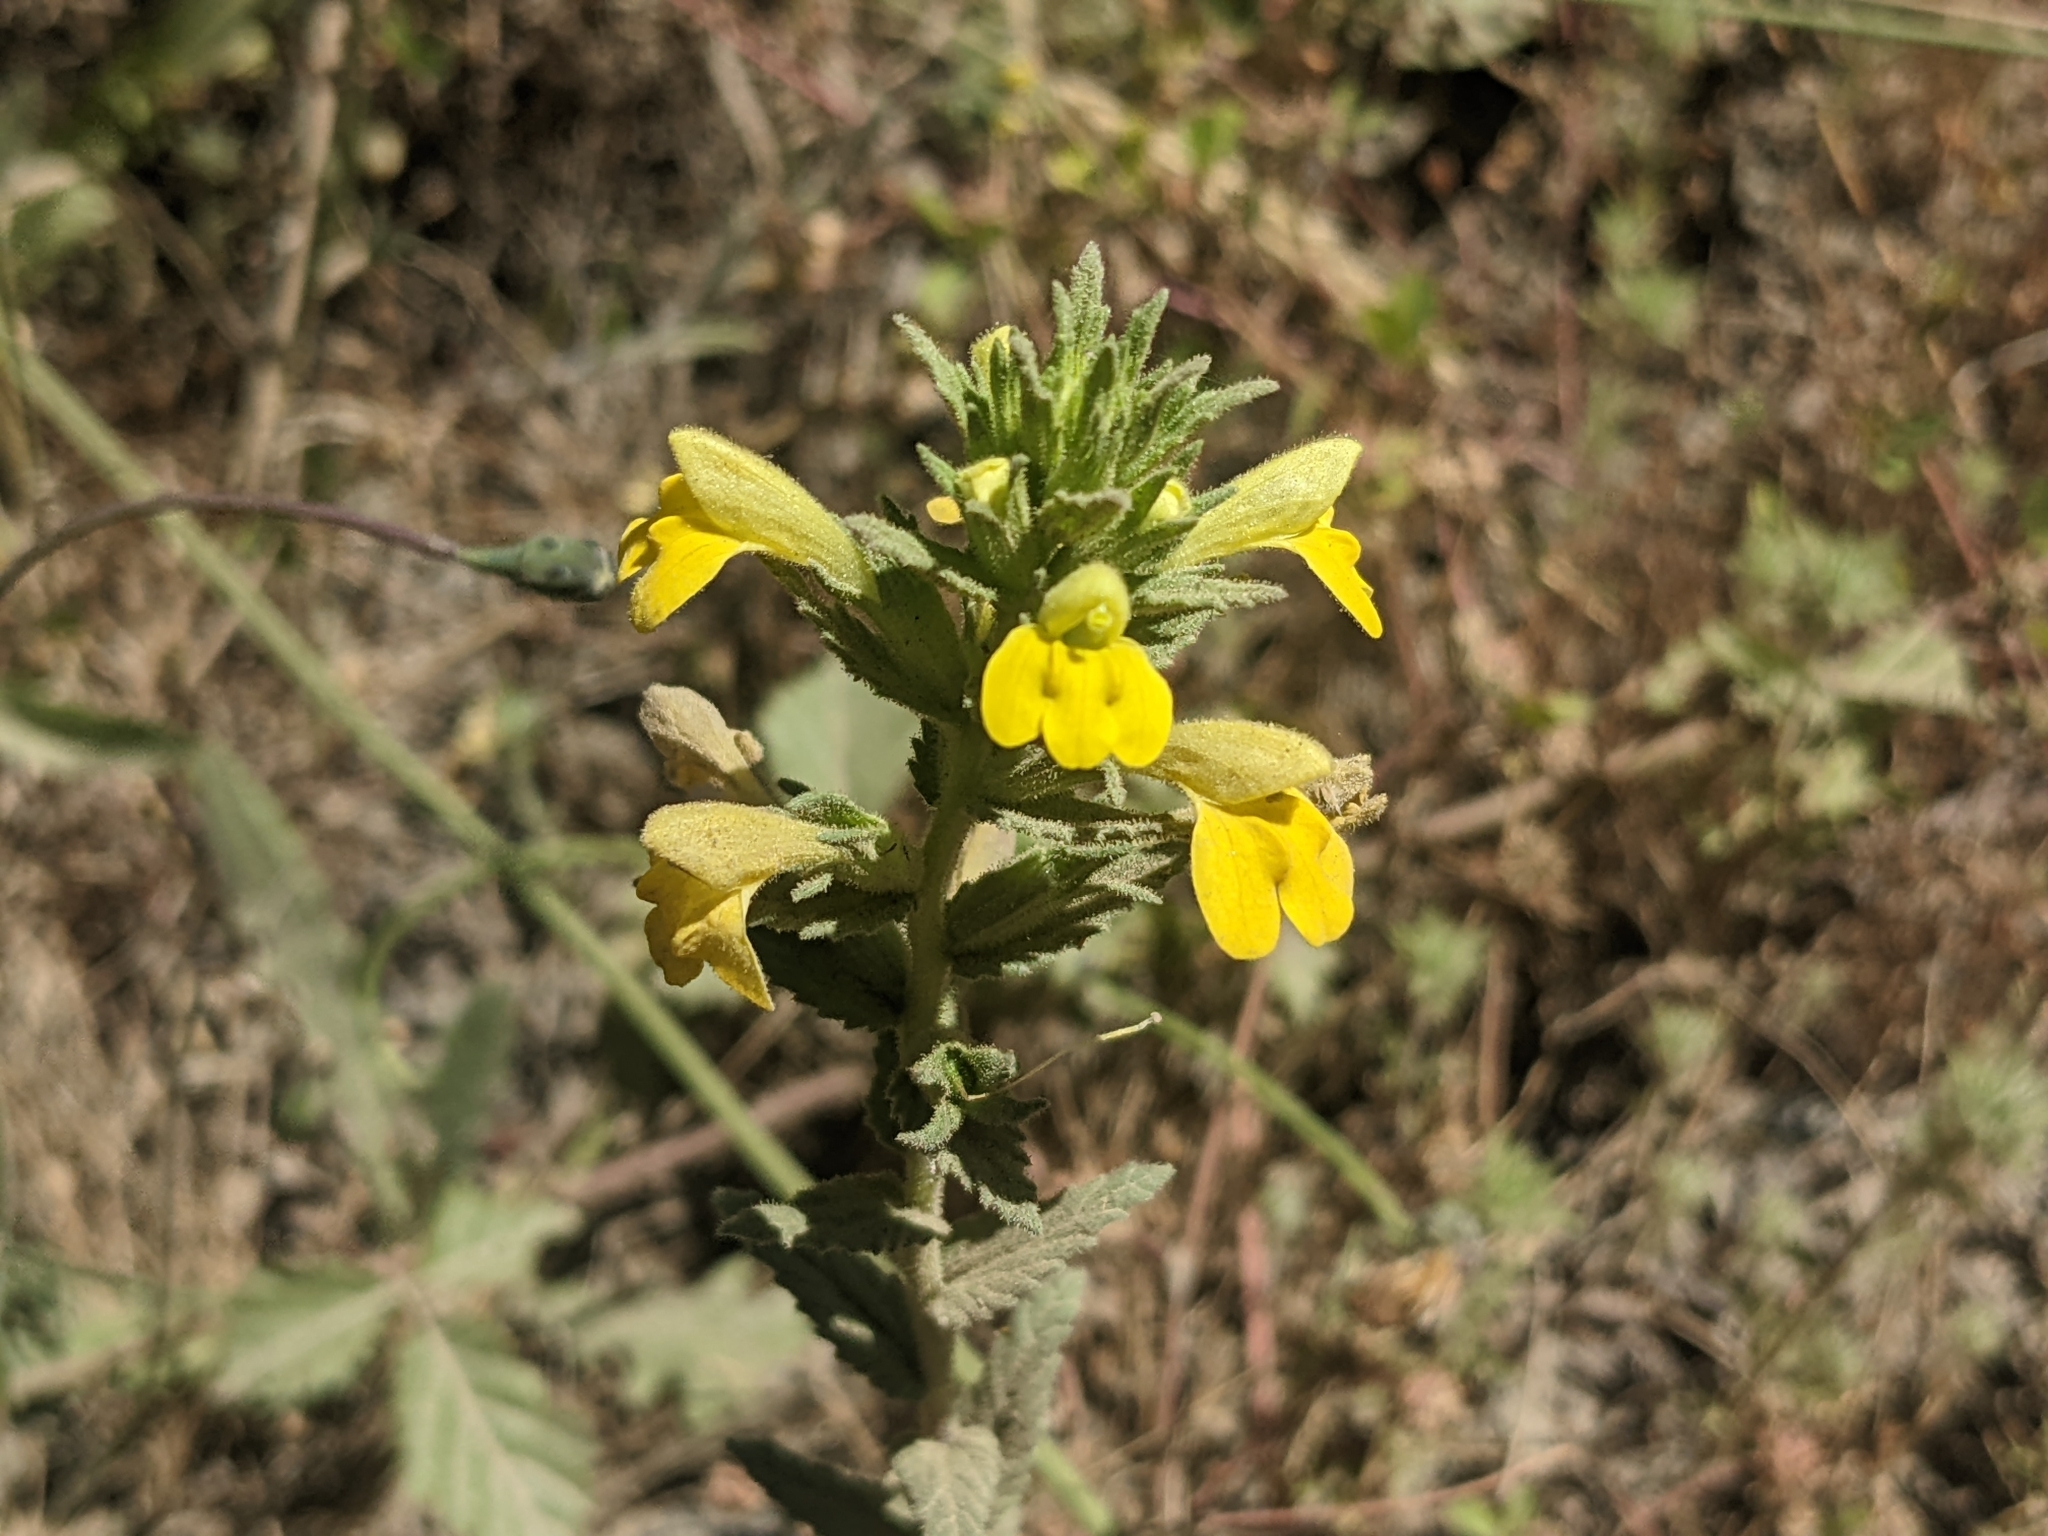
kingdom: Plantae
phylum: Tracheophyta
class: Magnoliopsida
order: Lamiales
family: Orobanchaceae
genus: Bellardia
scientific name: Bellardia viscosa
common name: Sticky parentucellia
